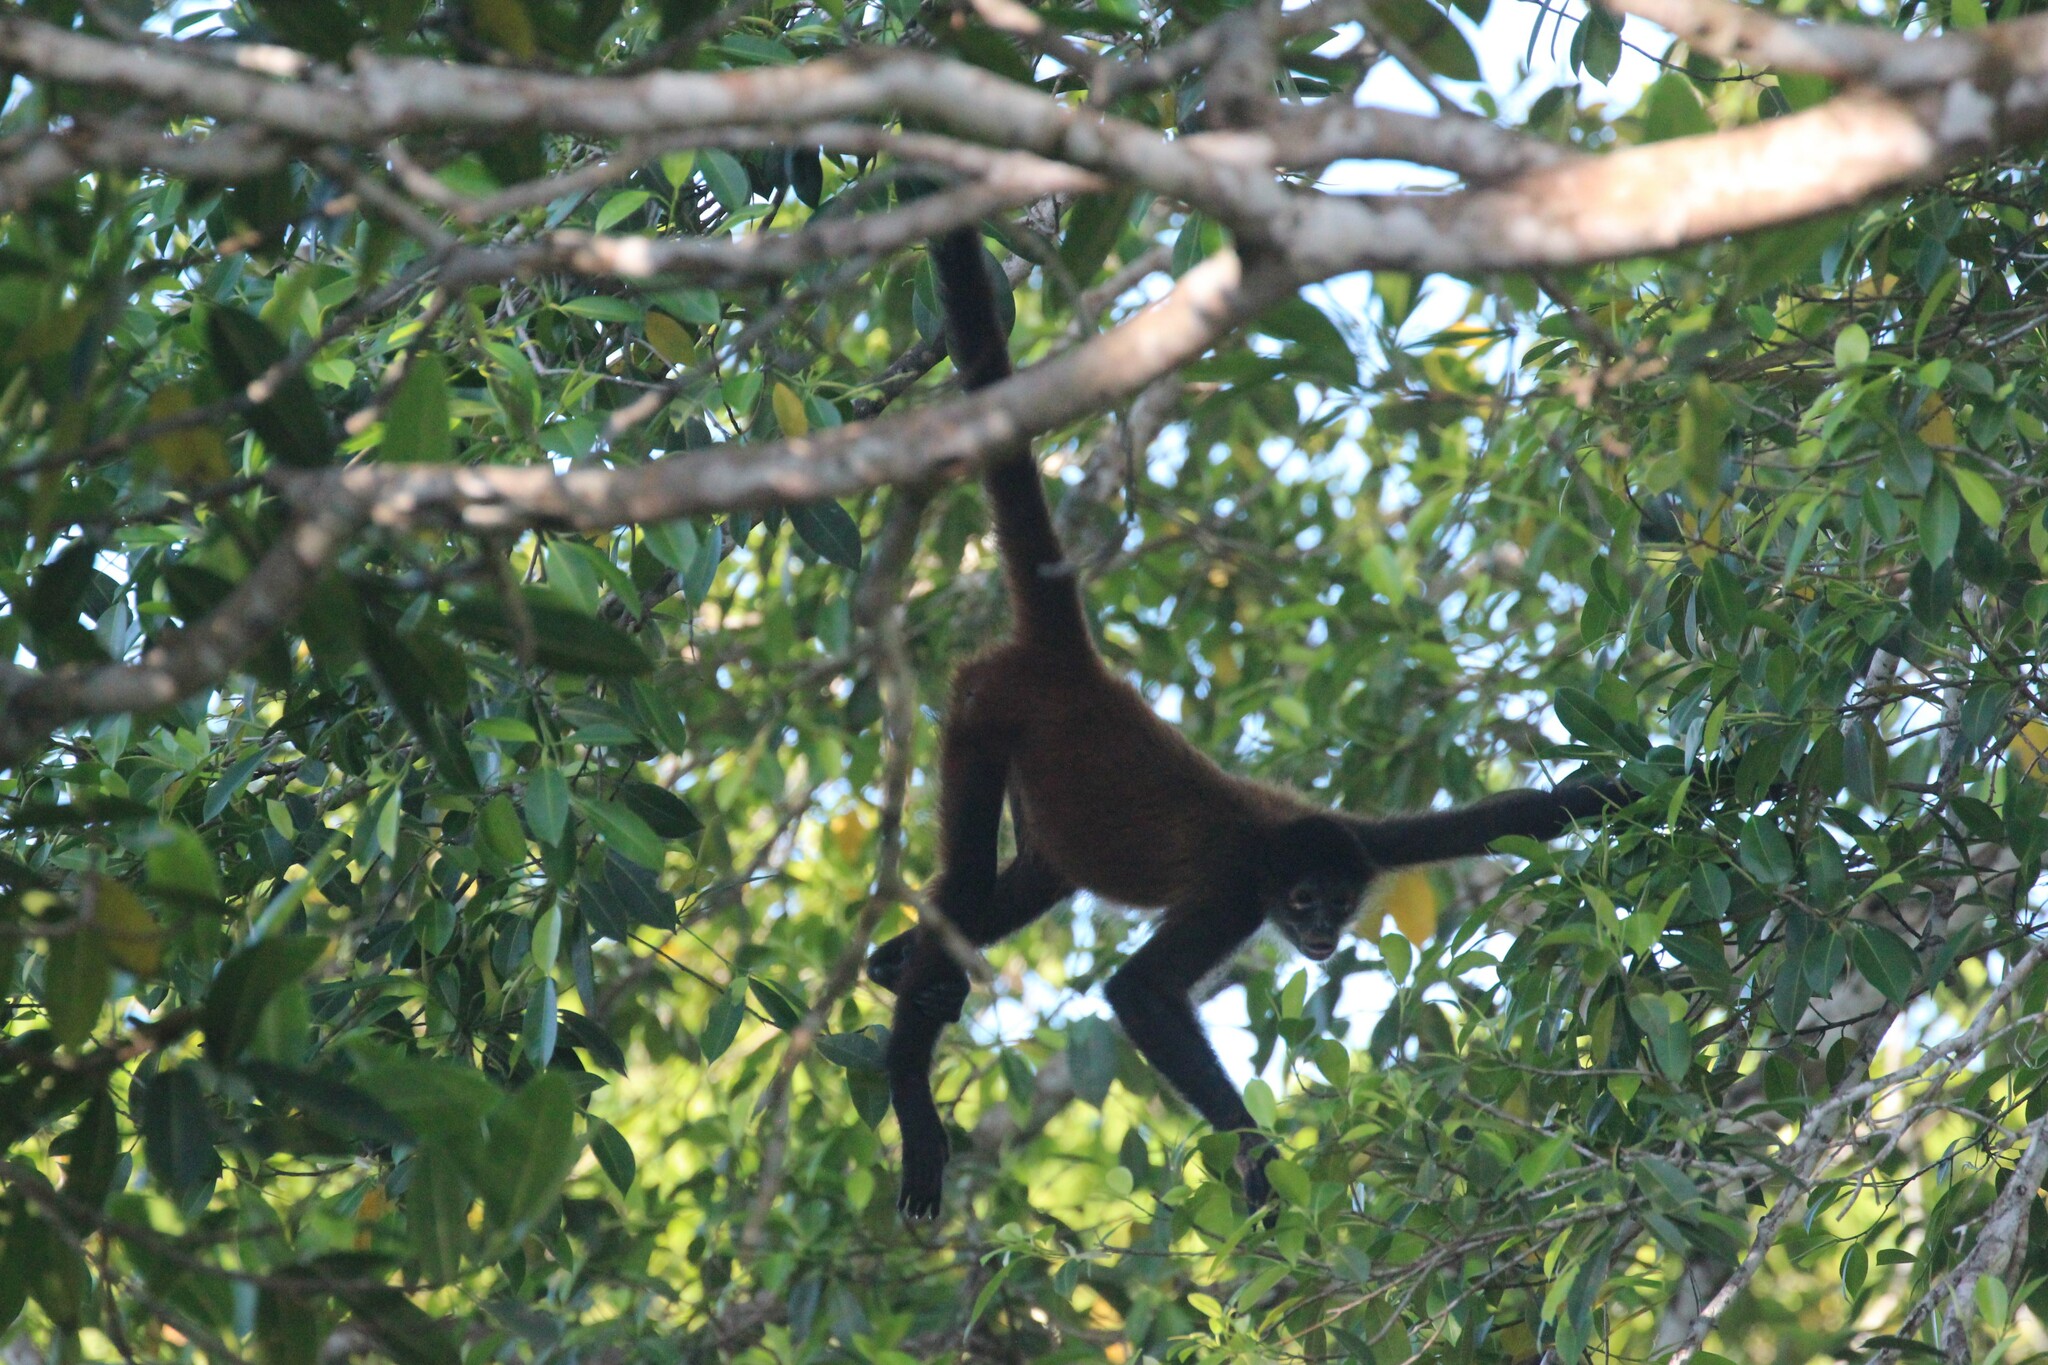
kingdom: Animalia
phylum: Chordata
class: Mammalia
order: Primates
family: Atelidae
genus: Ateles
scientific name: Ateles geoffroyi
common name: Black-handed spider monkey
